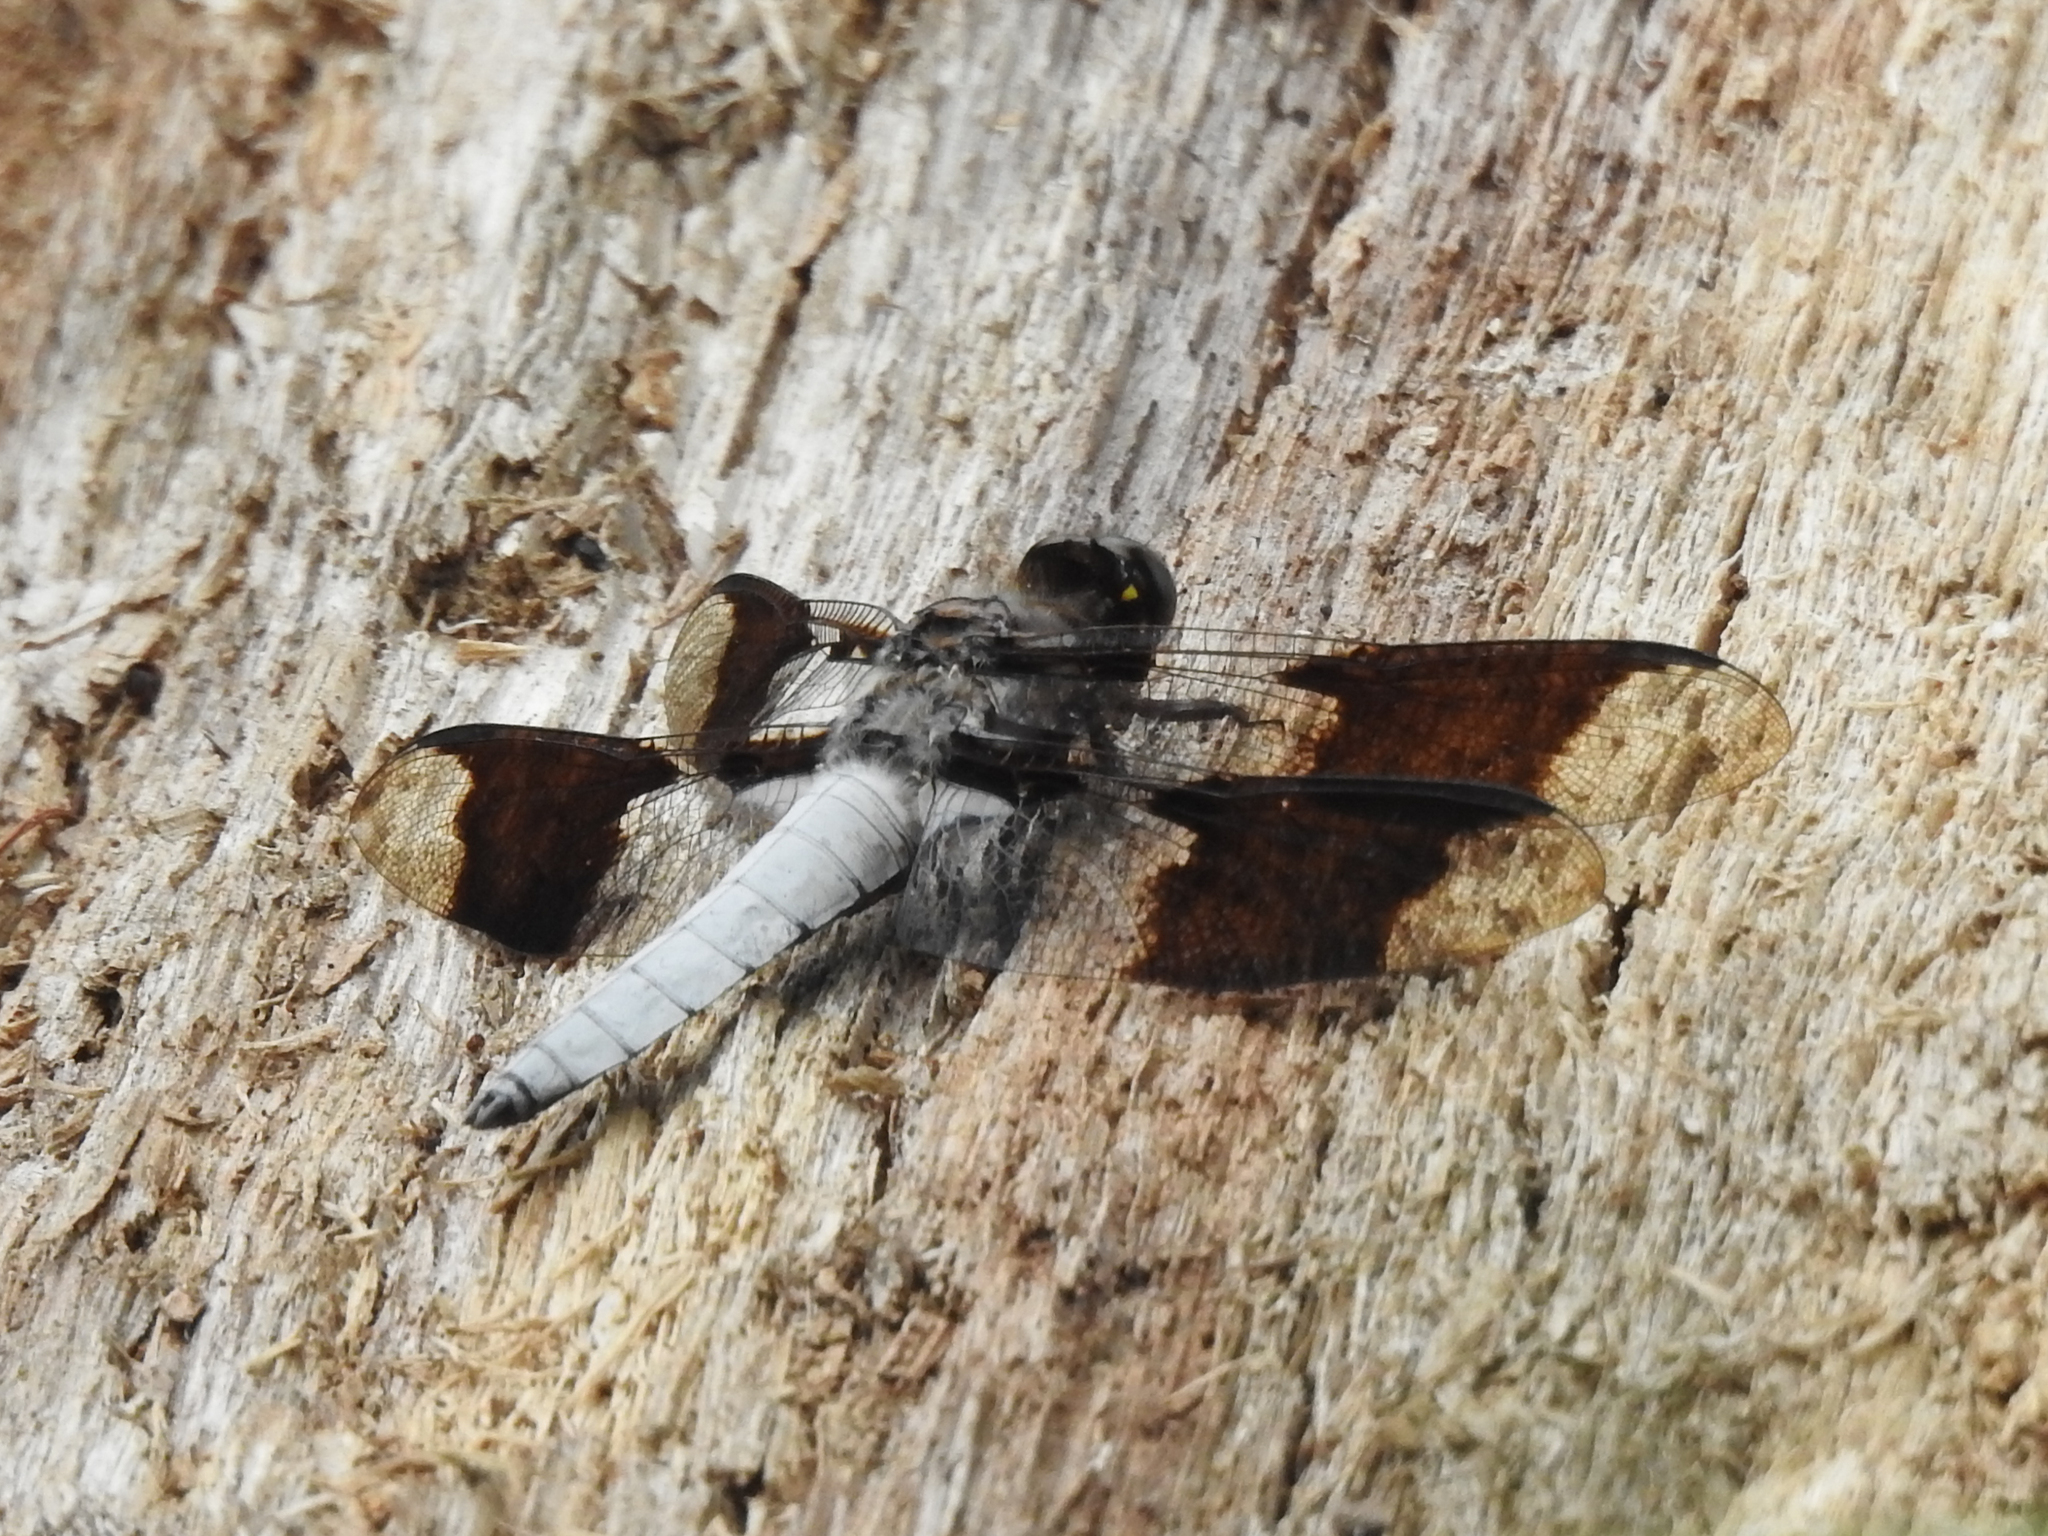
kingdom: Animalia
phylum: Arthropoda
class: Insecta
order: Odonata
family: Libellulidae
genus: Plathemis
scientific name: Plathemis lydia
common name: Common whitetail
